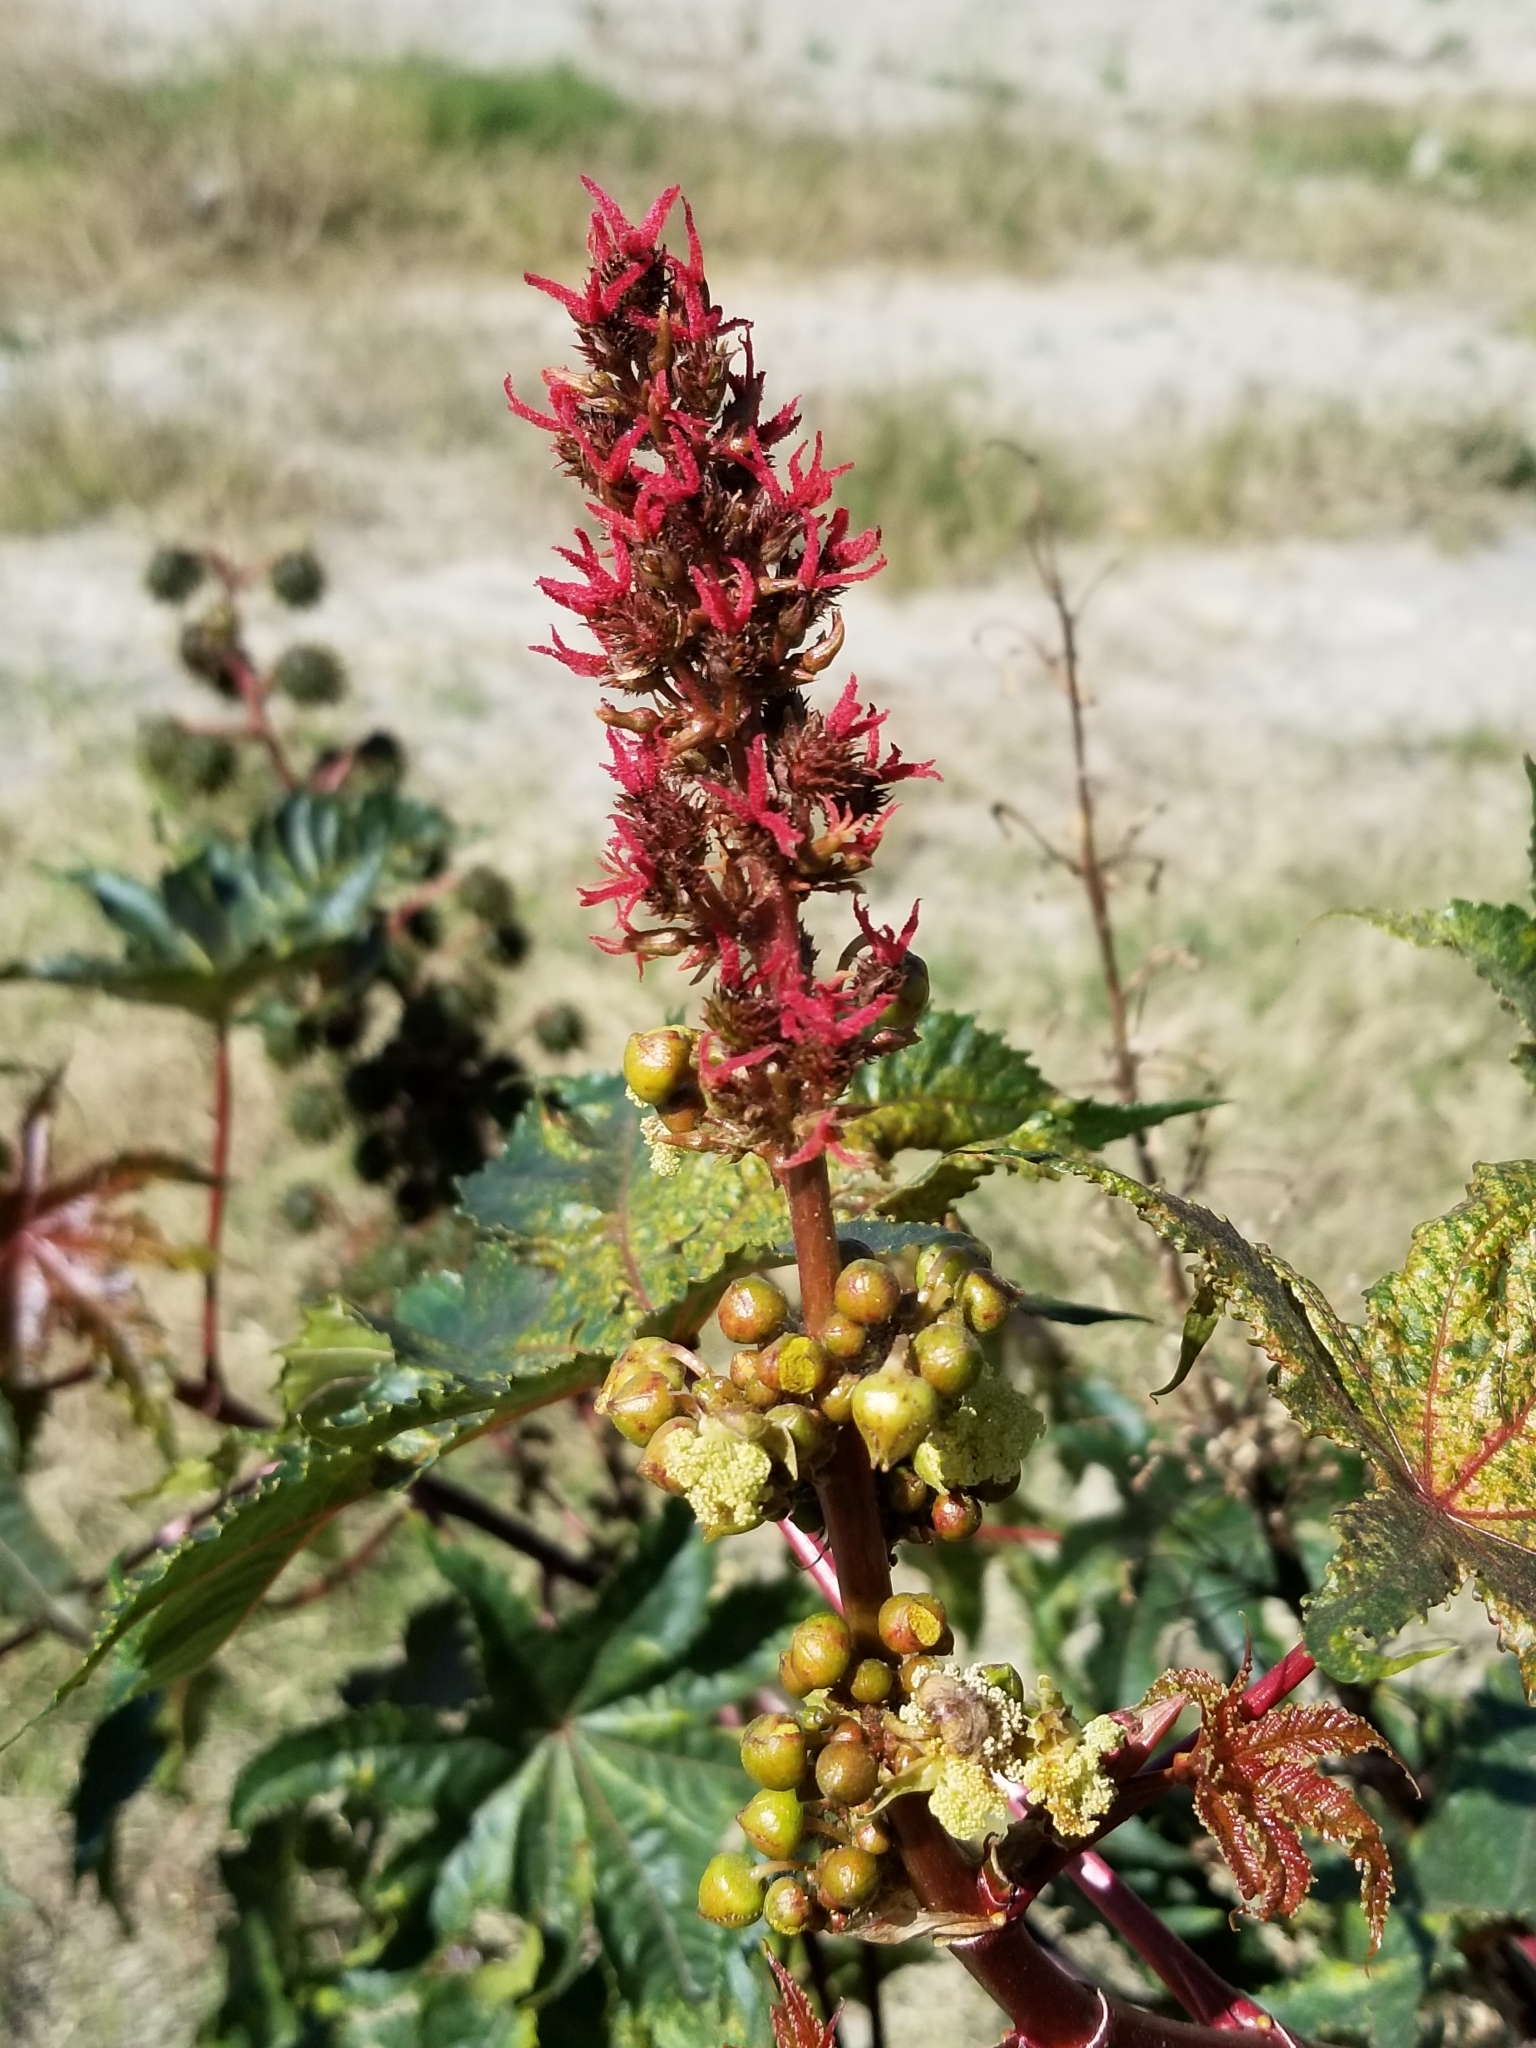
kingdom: Plantae
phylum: Tracheophyta
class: Magnoliopsida
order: Malpighiales
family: Euphorbiaceae
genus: Ricinus
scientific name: Ricinus communis
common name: Castor-oil-plant
